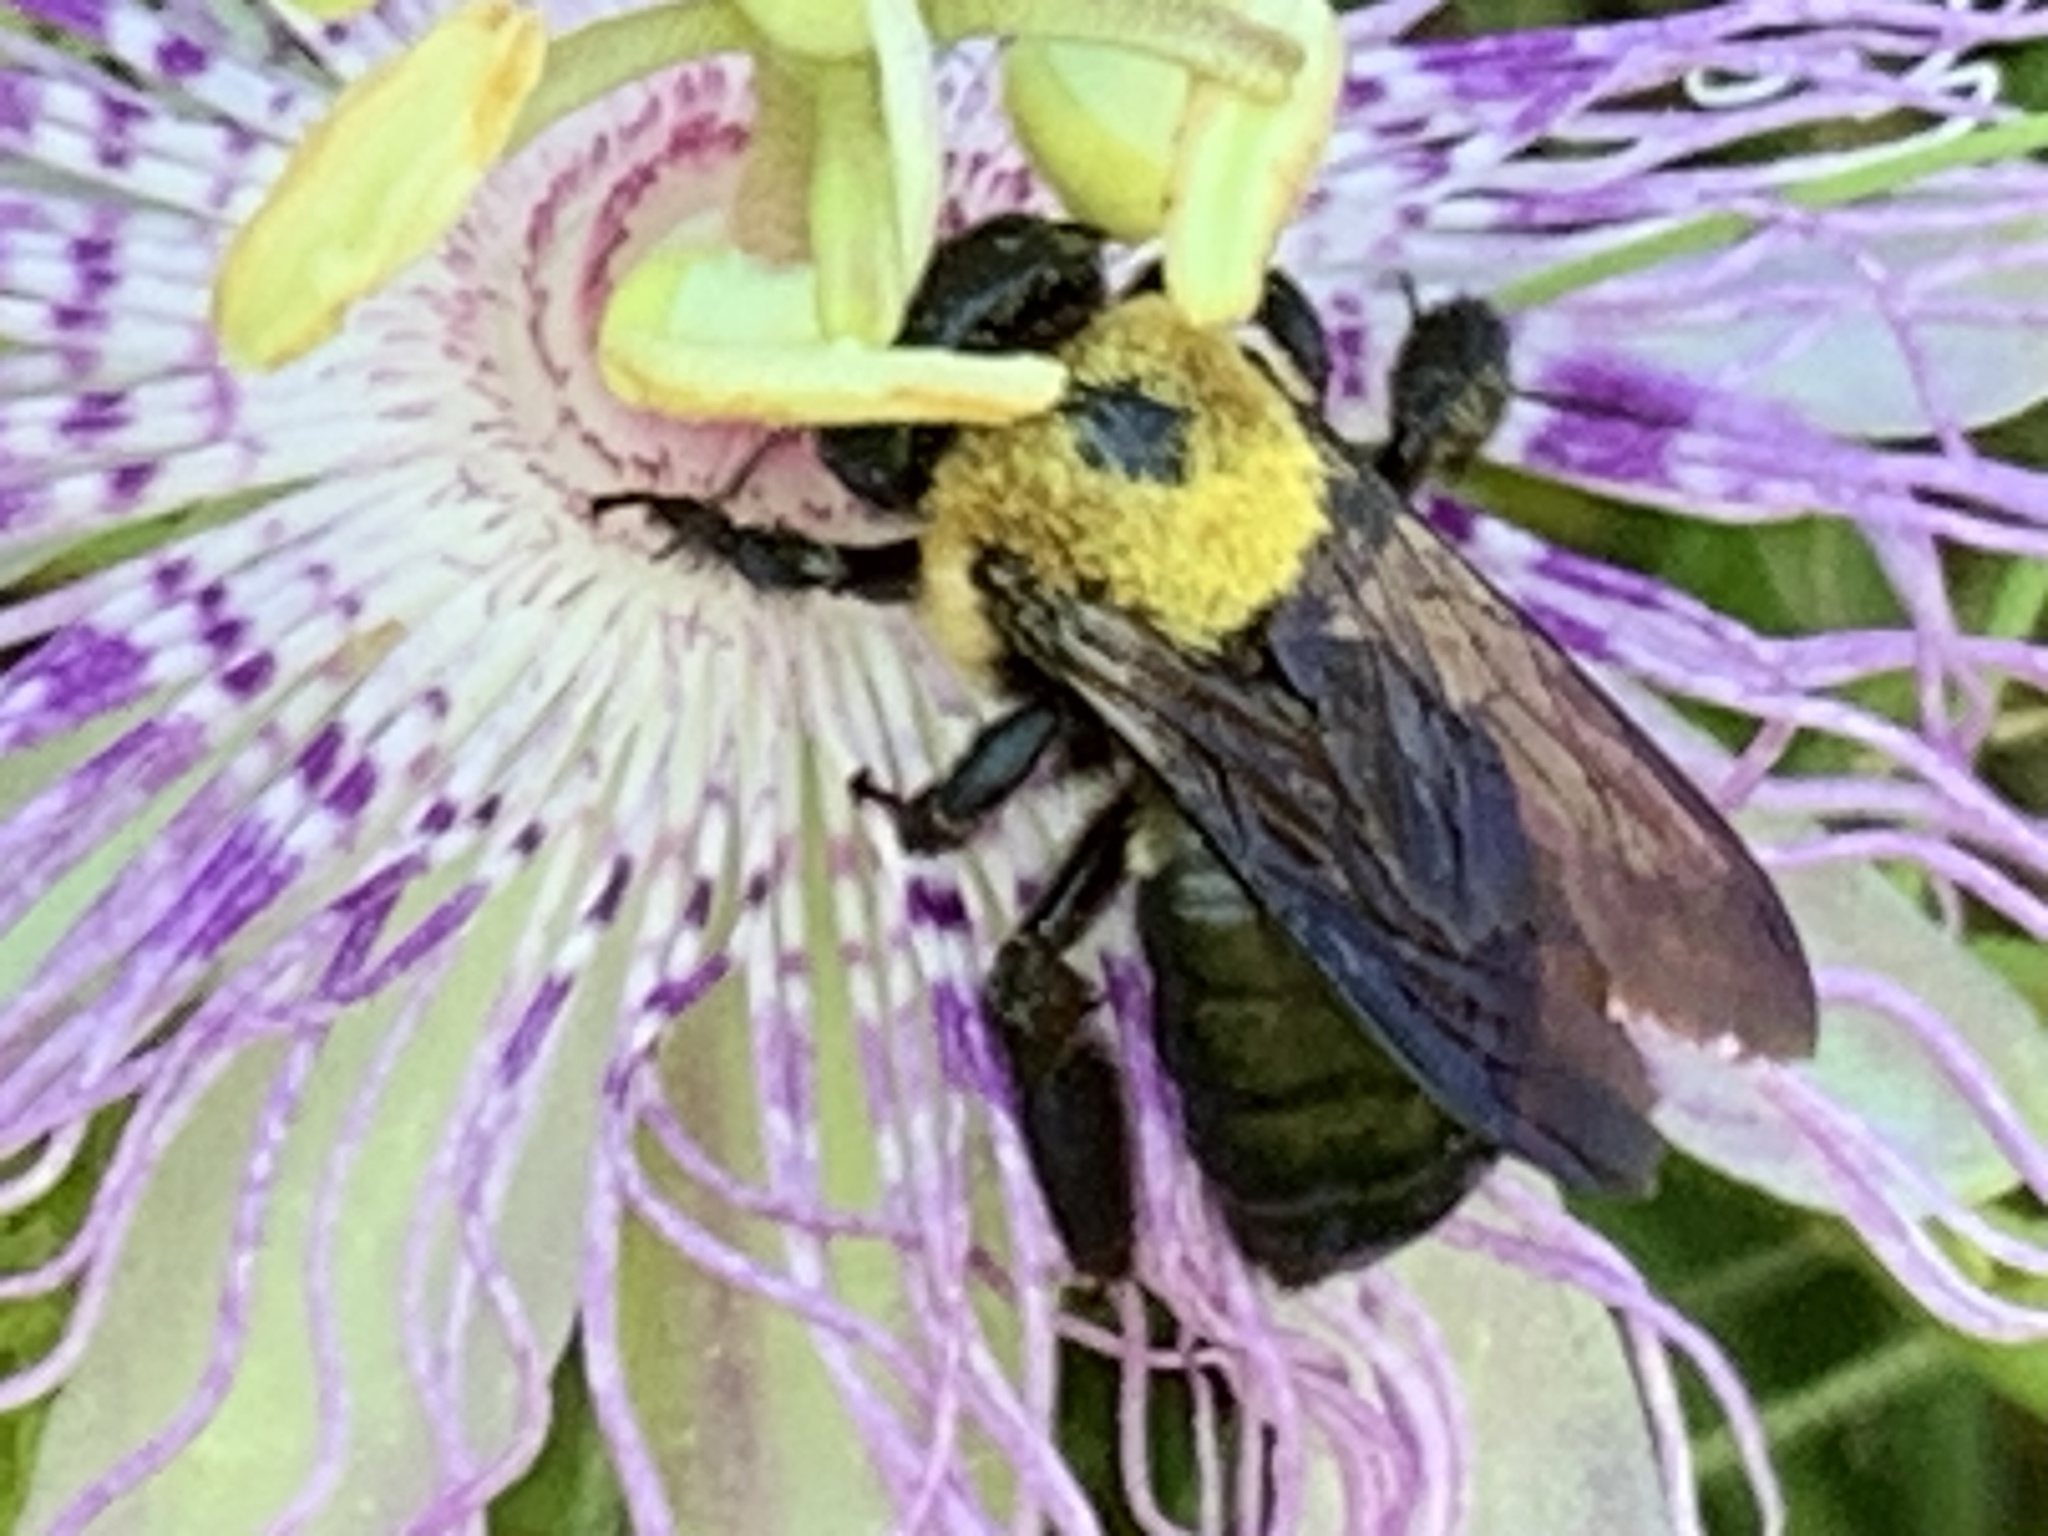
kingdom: Animalia
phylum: Arthropoda
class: Insecta
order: Hymenoptera
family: Apidae
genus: Xylocopa
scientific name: Xylocopa virginica
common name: Carpenter bee
